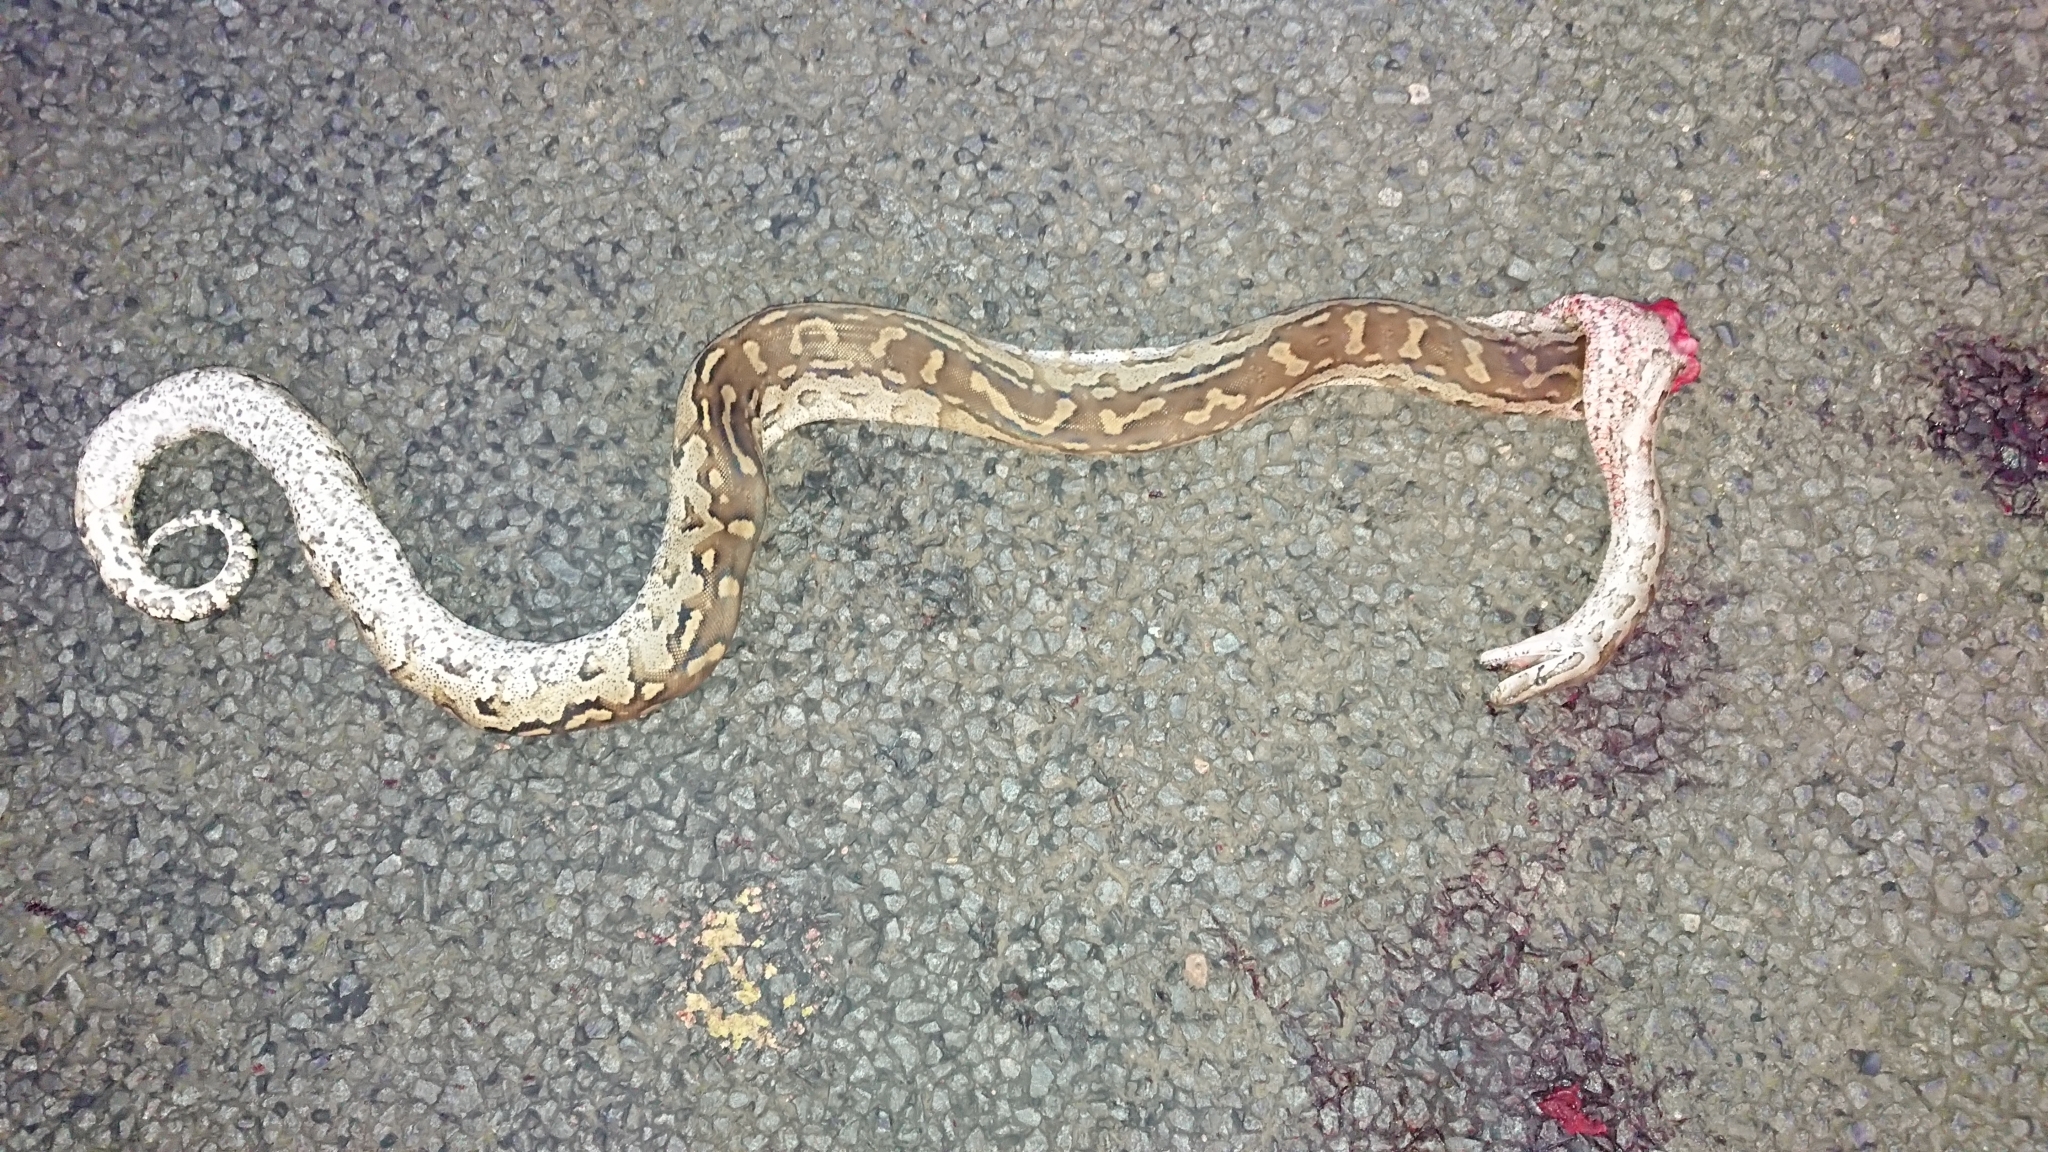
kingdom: Animalia
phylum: Chordata
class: Squamata
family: Pythonidae
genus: Python
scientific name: Python natalensis
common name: Southern african rock python
